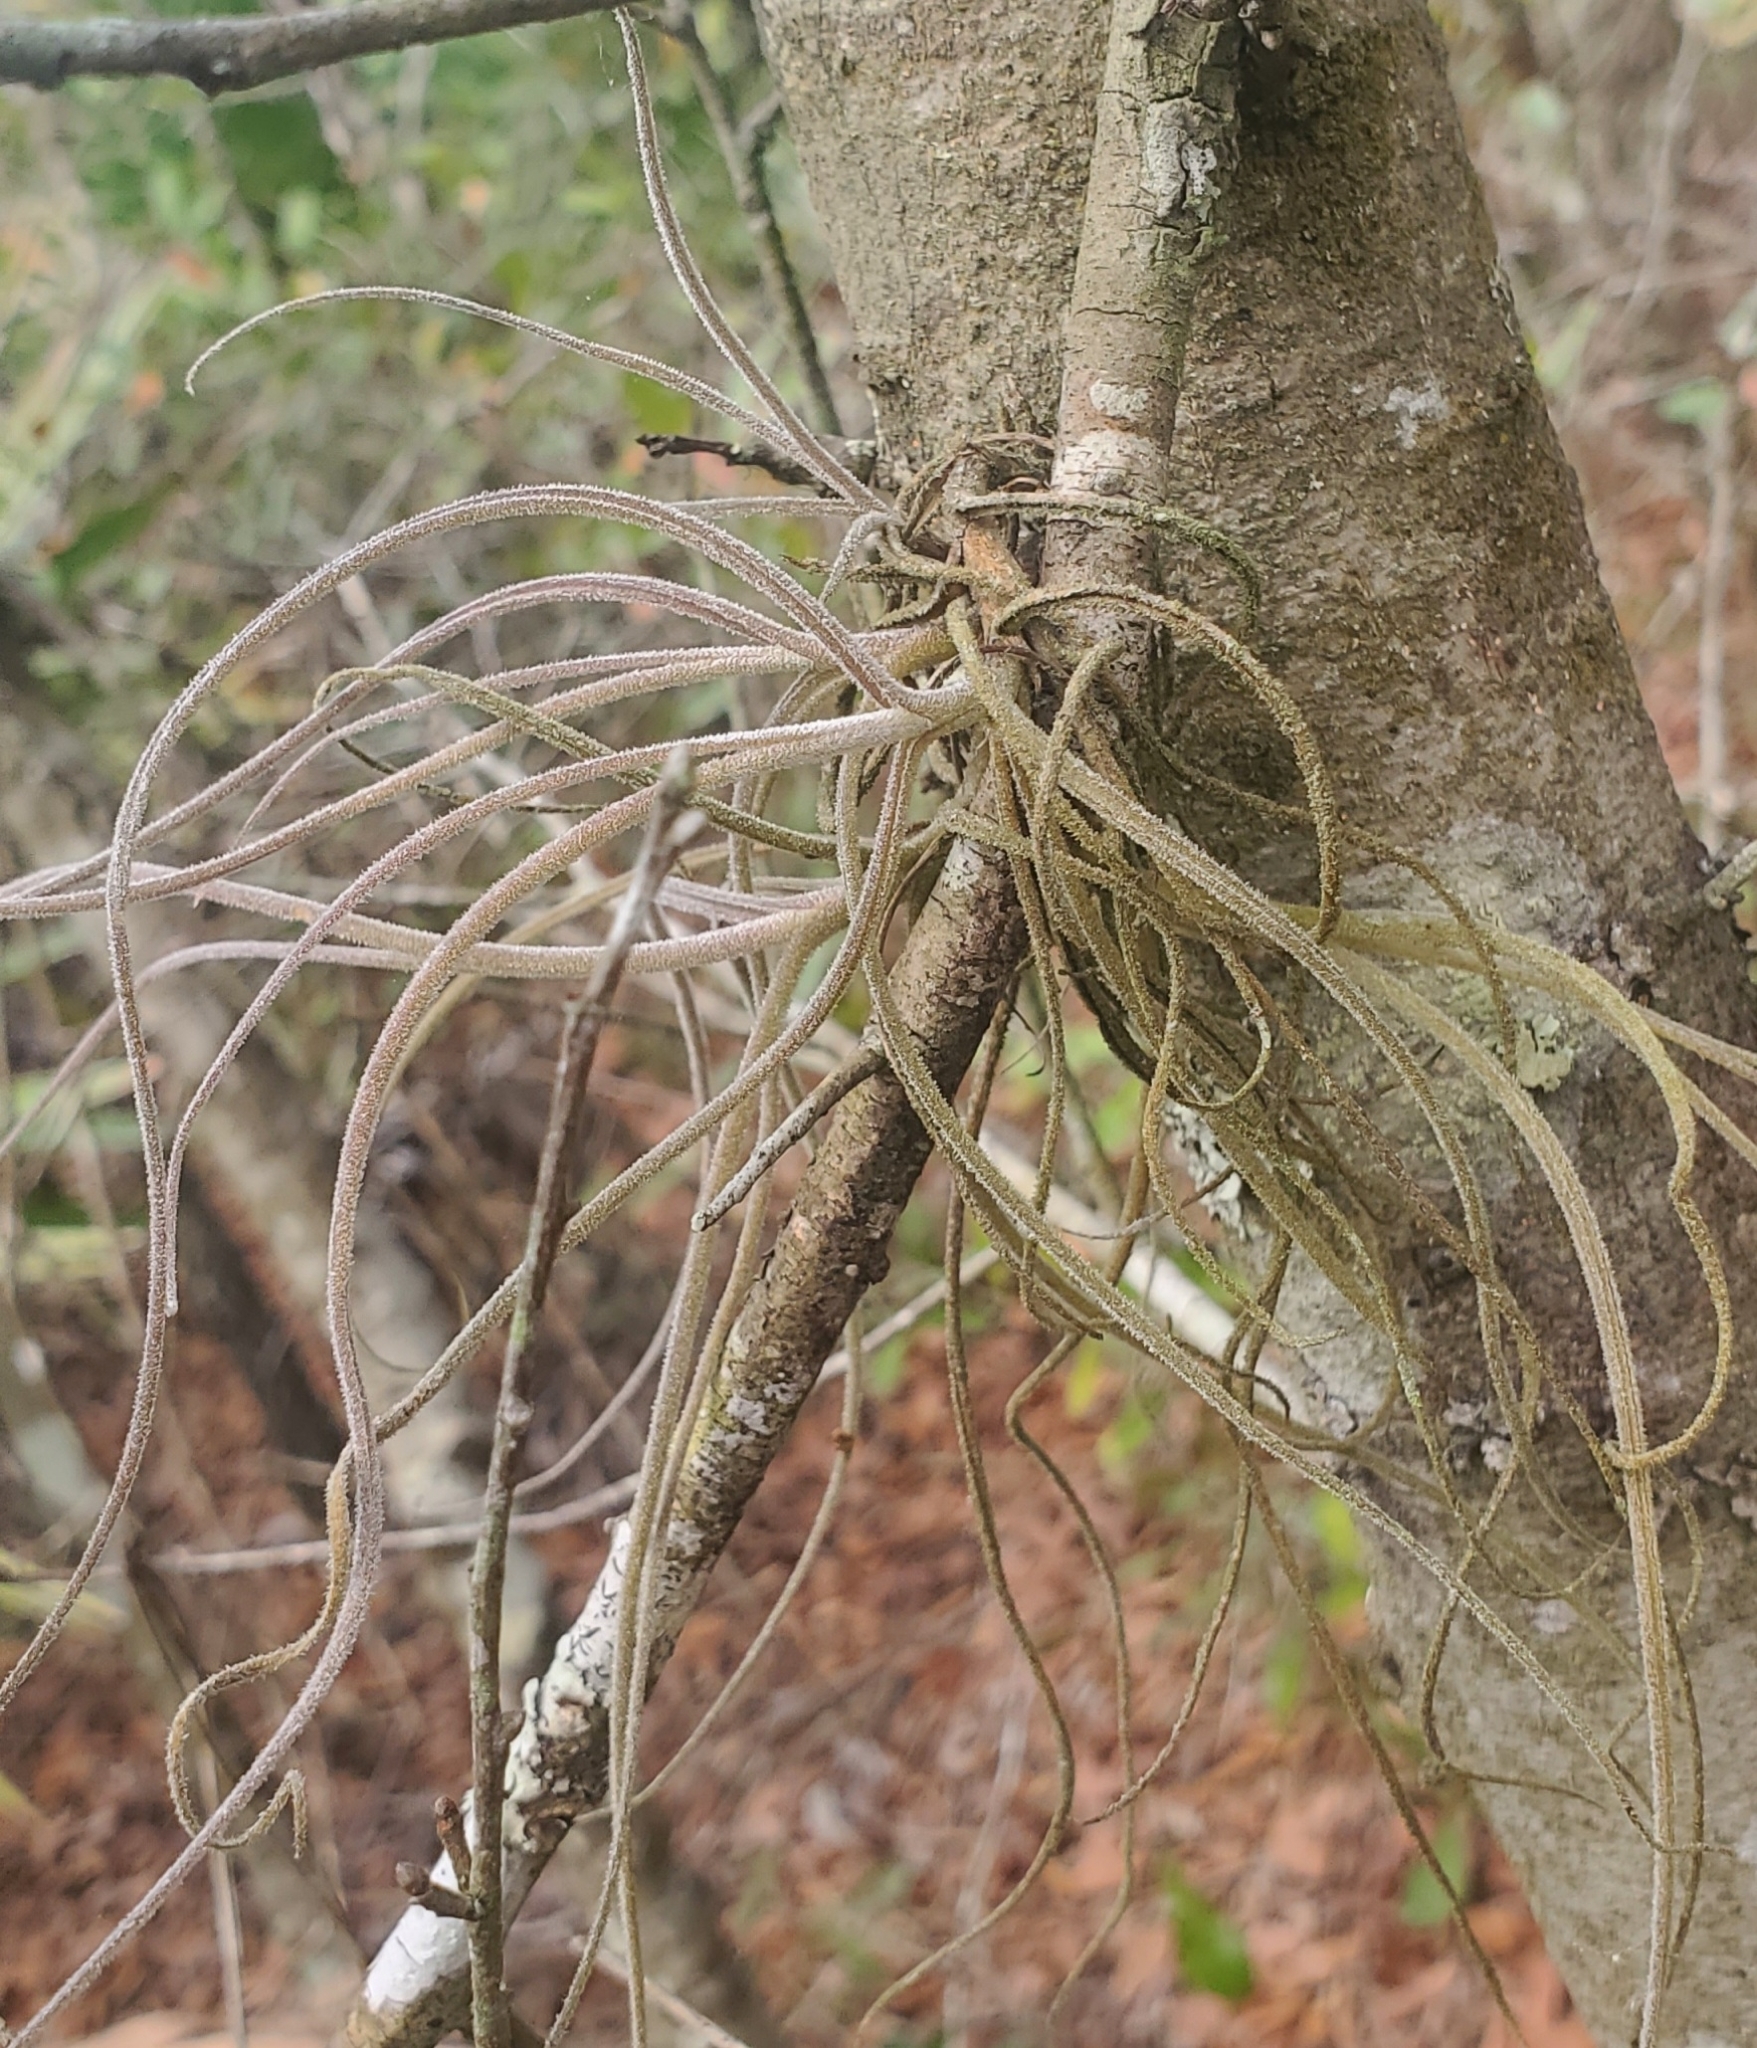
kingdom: Plantae
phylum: Tracheophyta
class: Liliopsida
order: Poales
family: Bromeliaceae
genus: Tillandsia
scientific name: Tillandsia recurvata
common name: Small ballmoss
